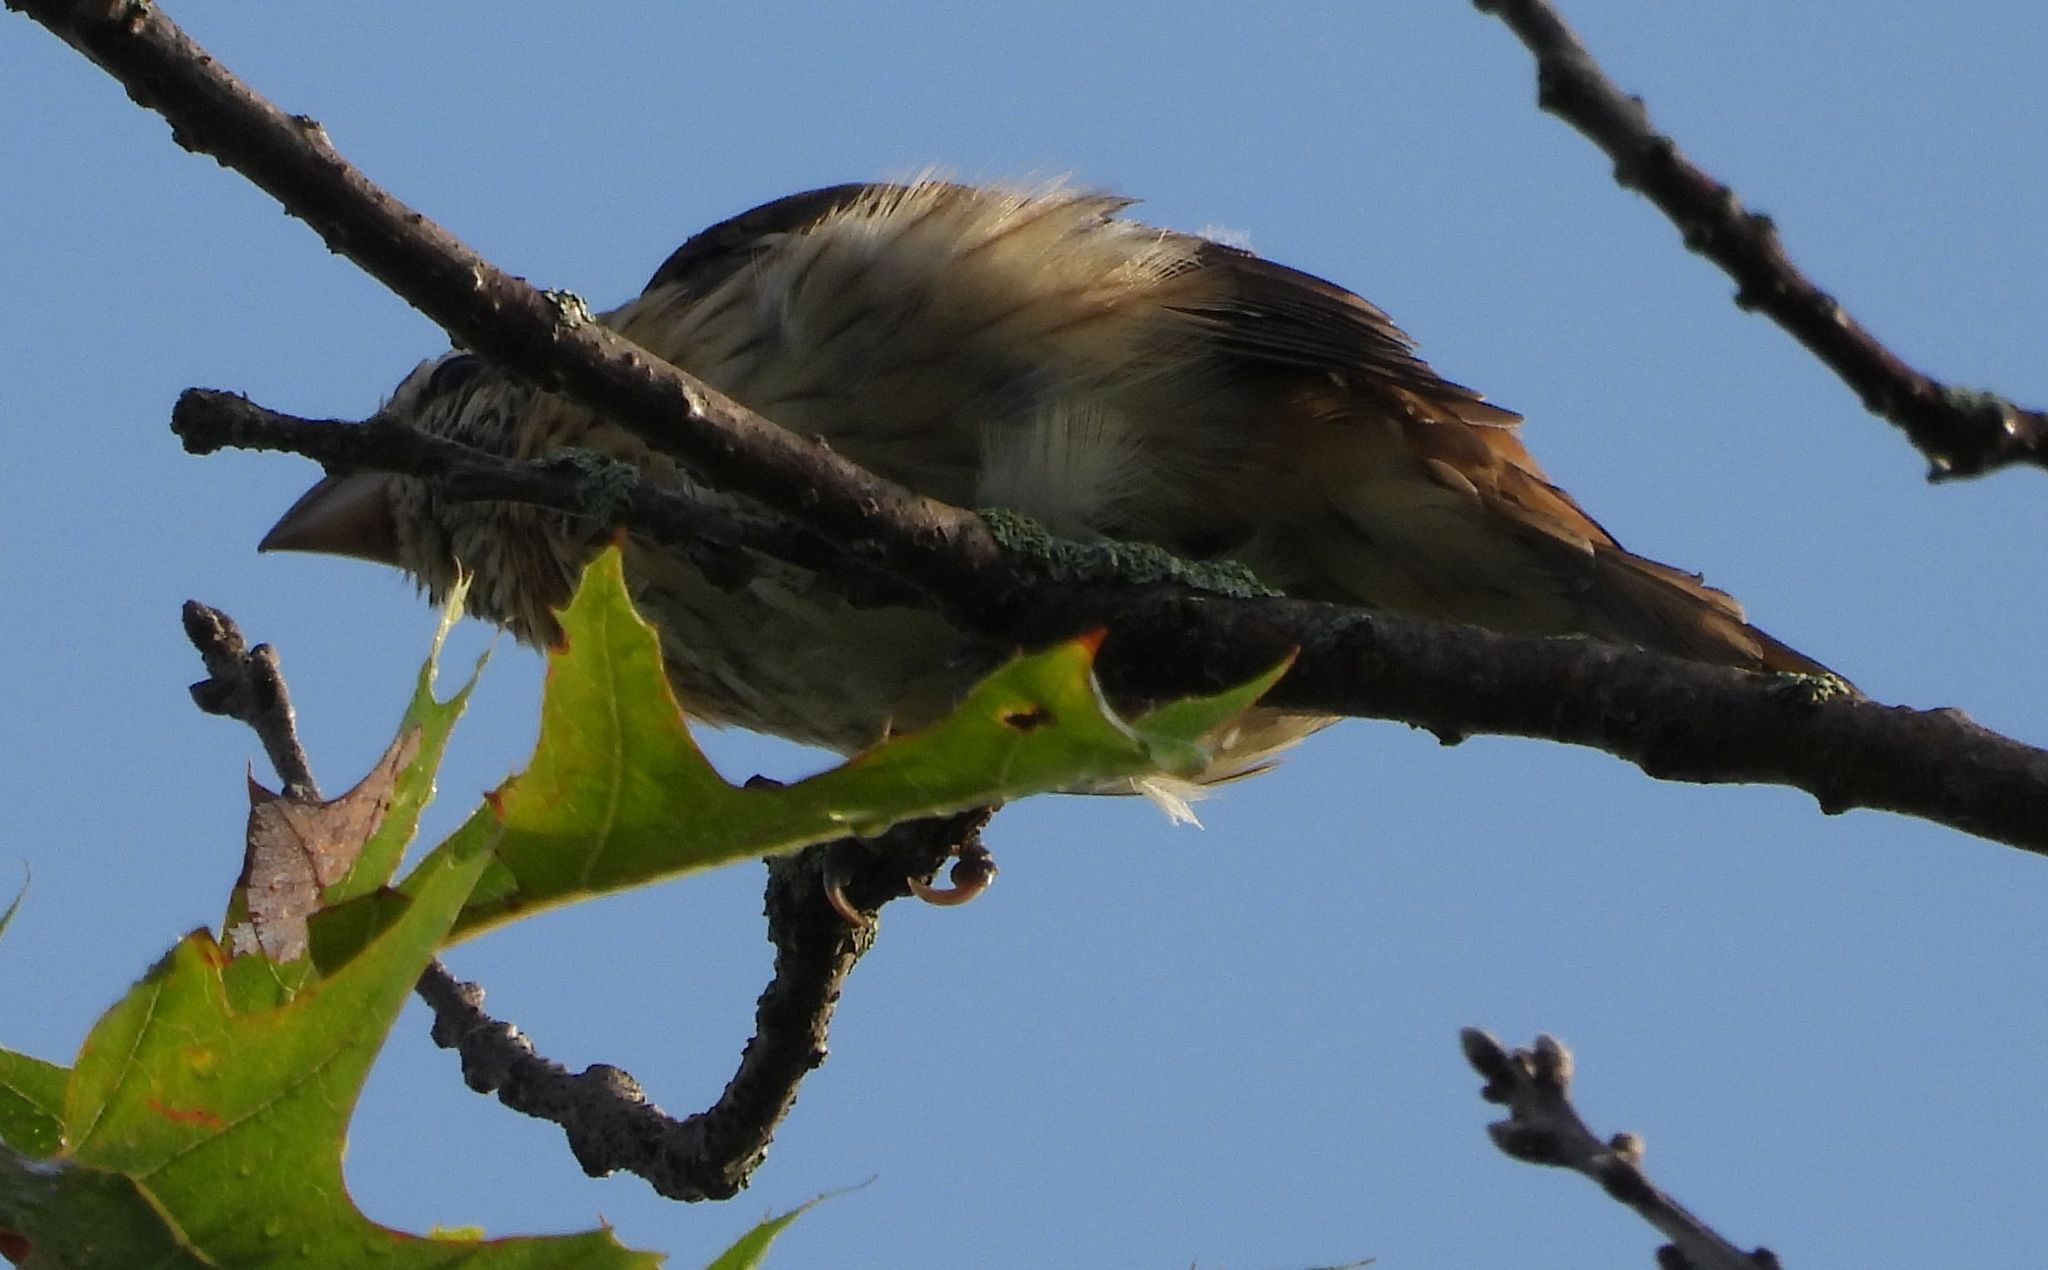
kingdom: Animalia
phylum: Chordata
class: Aves
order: Passeriformes
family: Cardinalidae
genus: Pheucticus
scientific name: Pheucticus ludovicianus
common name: Rose-breasted grosbeak
